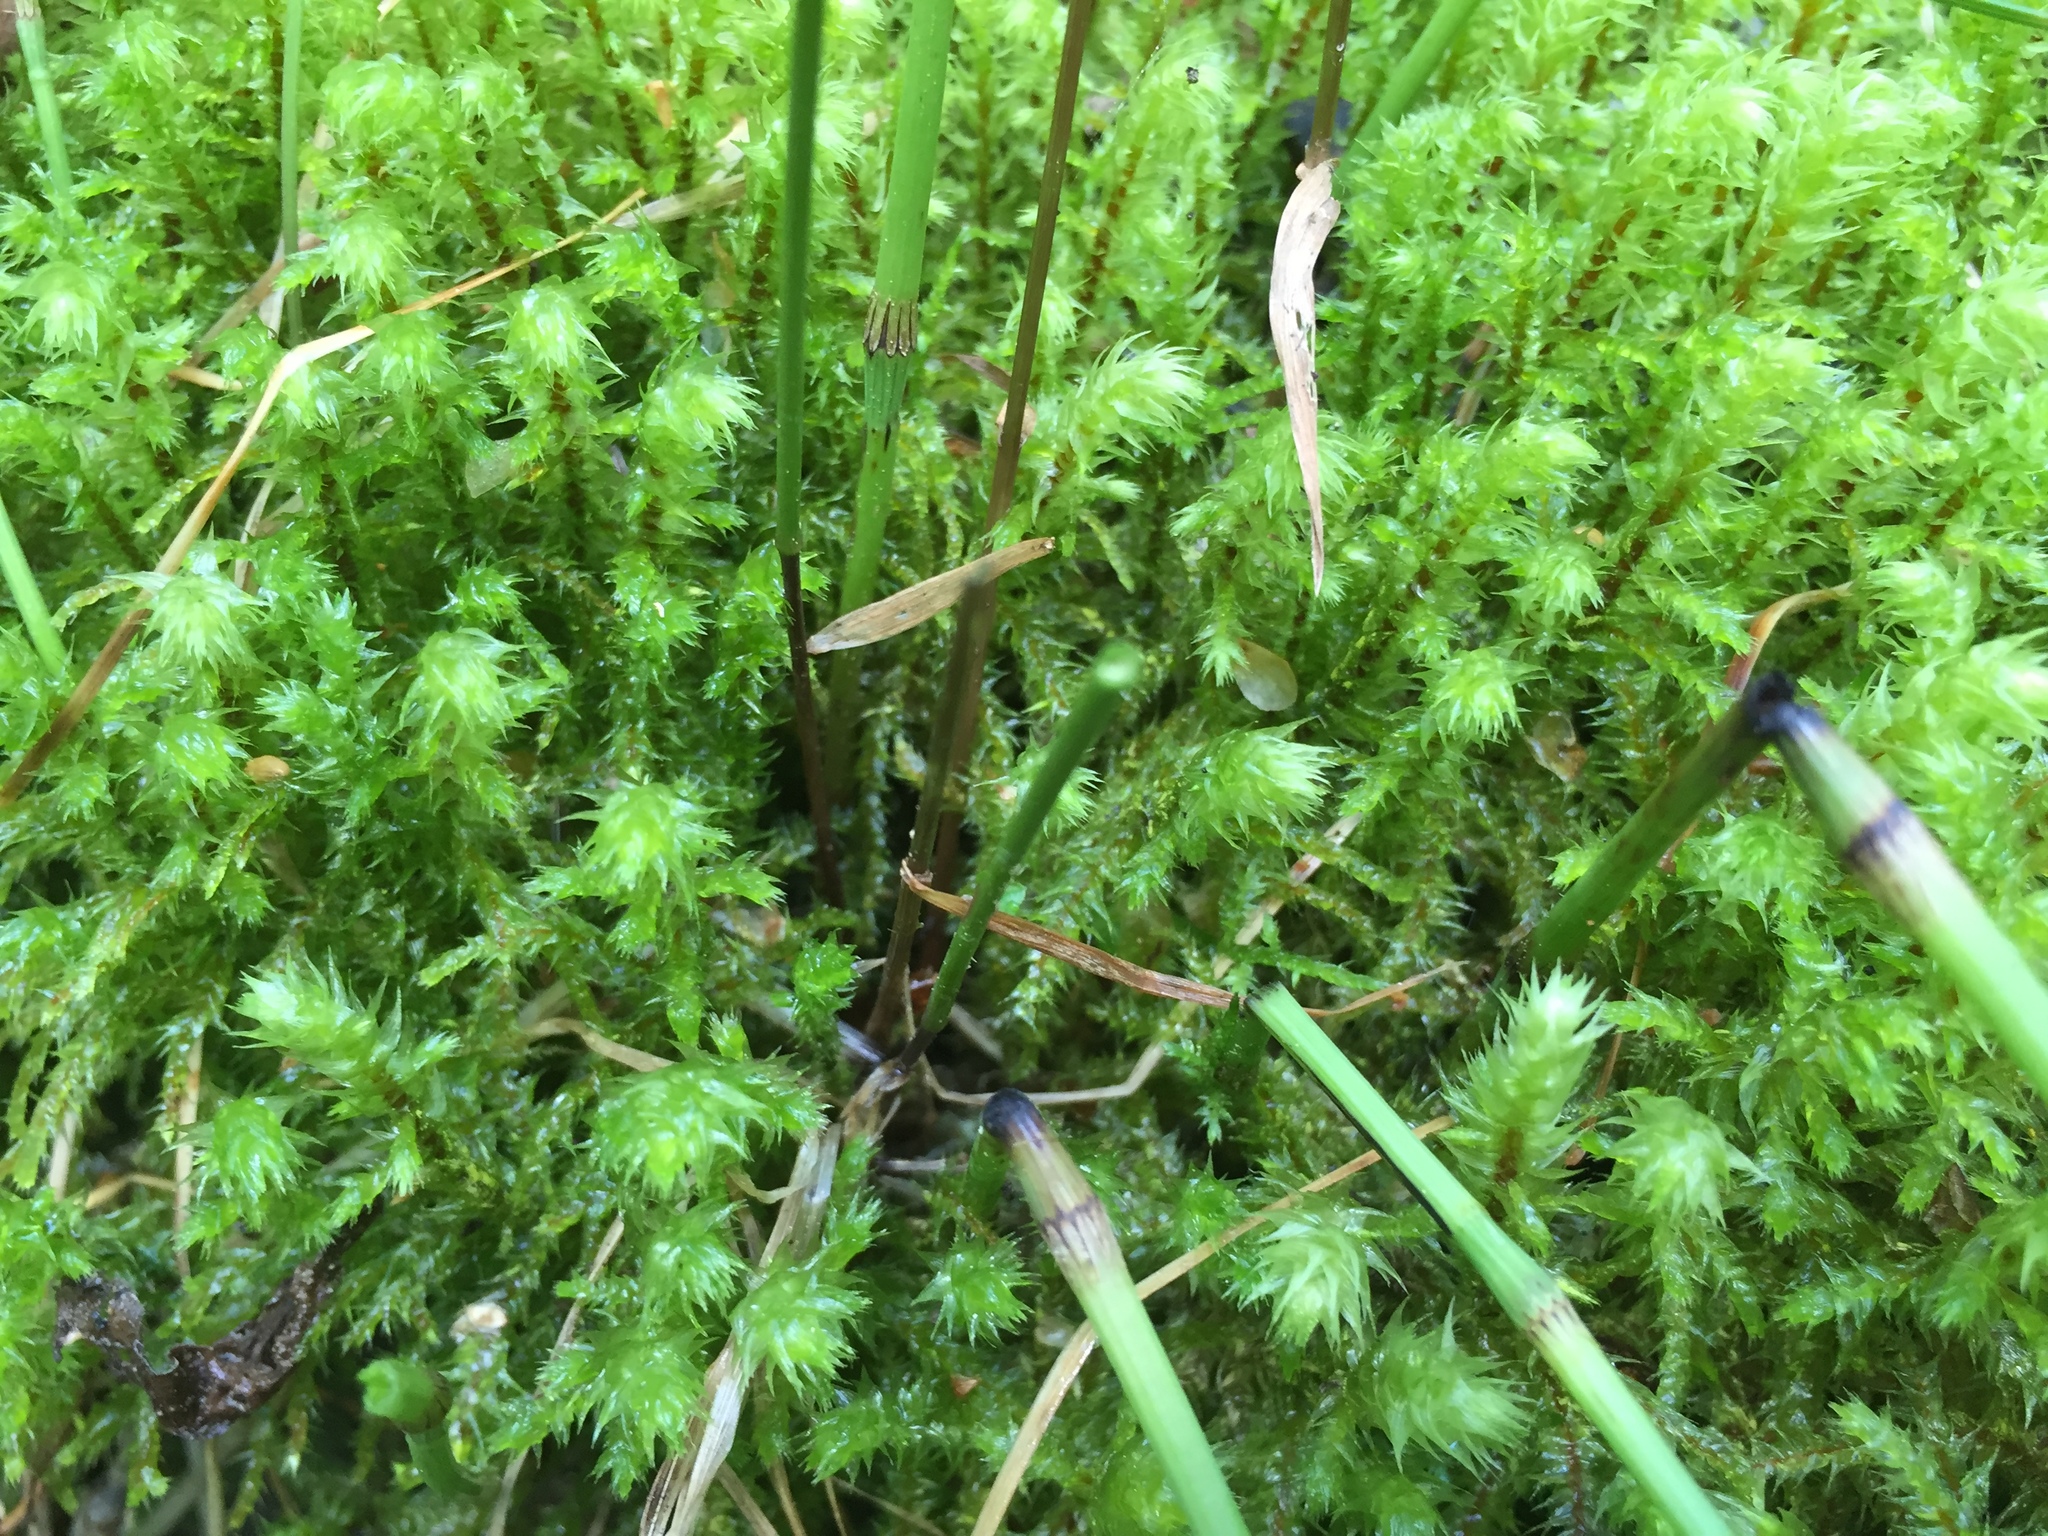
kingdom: Plantae
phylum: Bryophyta
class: Bryopsida
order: Hypnales
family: Hylocomiaceae
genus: Rhytidiadelphus
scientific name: Rhytidiadelphus squarrosus
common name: Springy turf-moss
